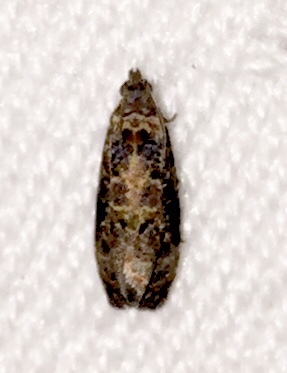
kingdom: Animalia
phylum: Arthropoda
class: Insecta
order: Lepidoptera
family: Tortricidae
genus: Endothenia
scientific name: Endothenia hebesana
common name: Verbena bud moth
